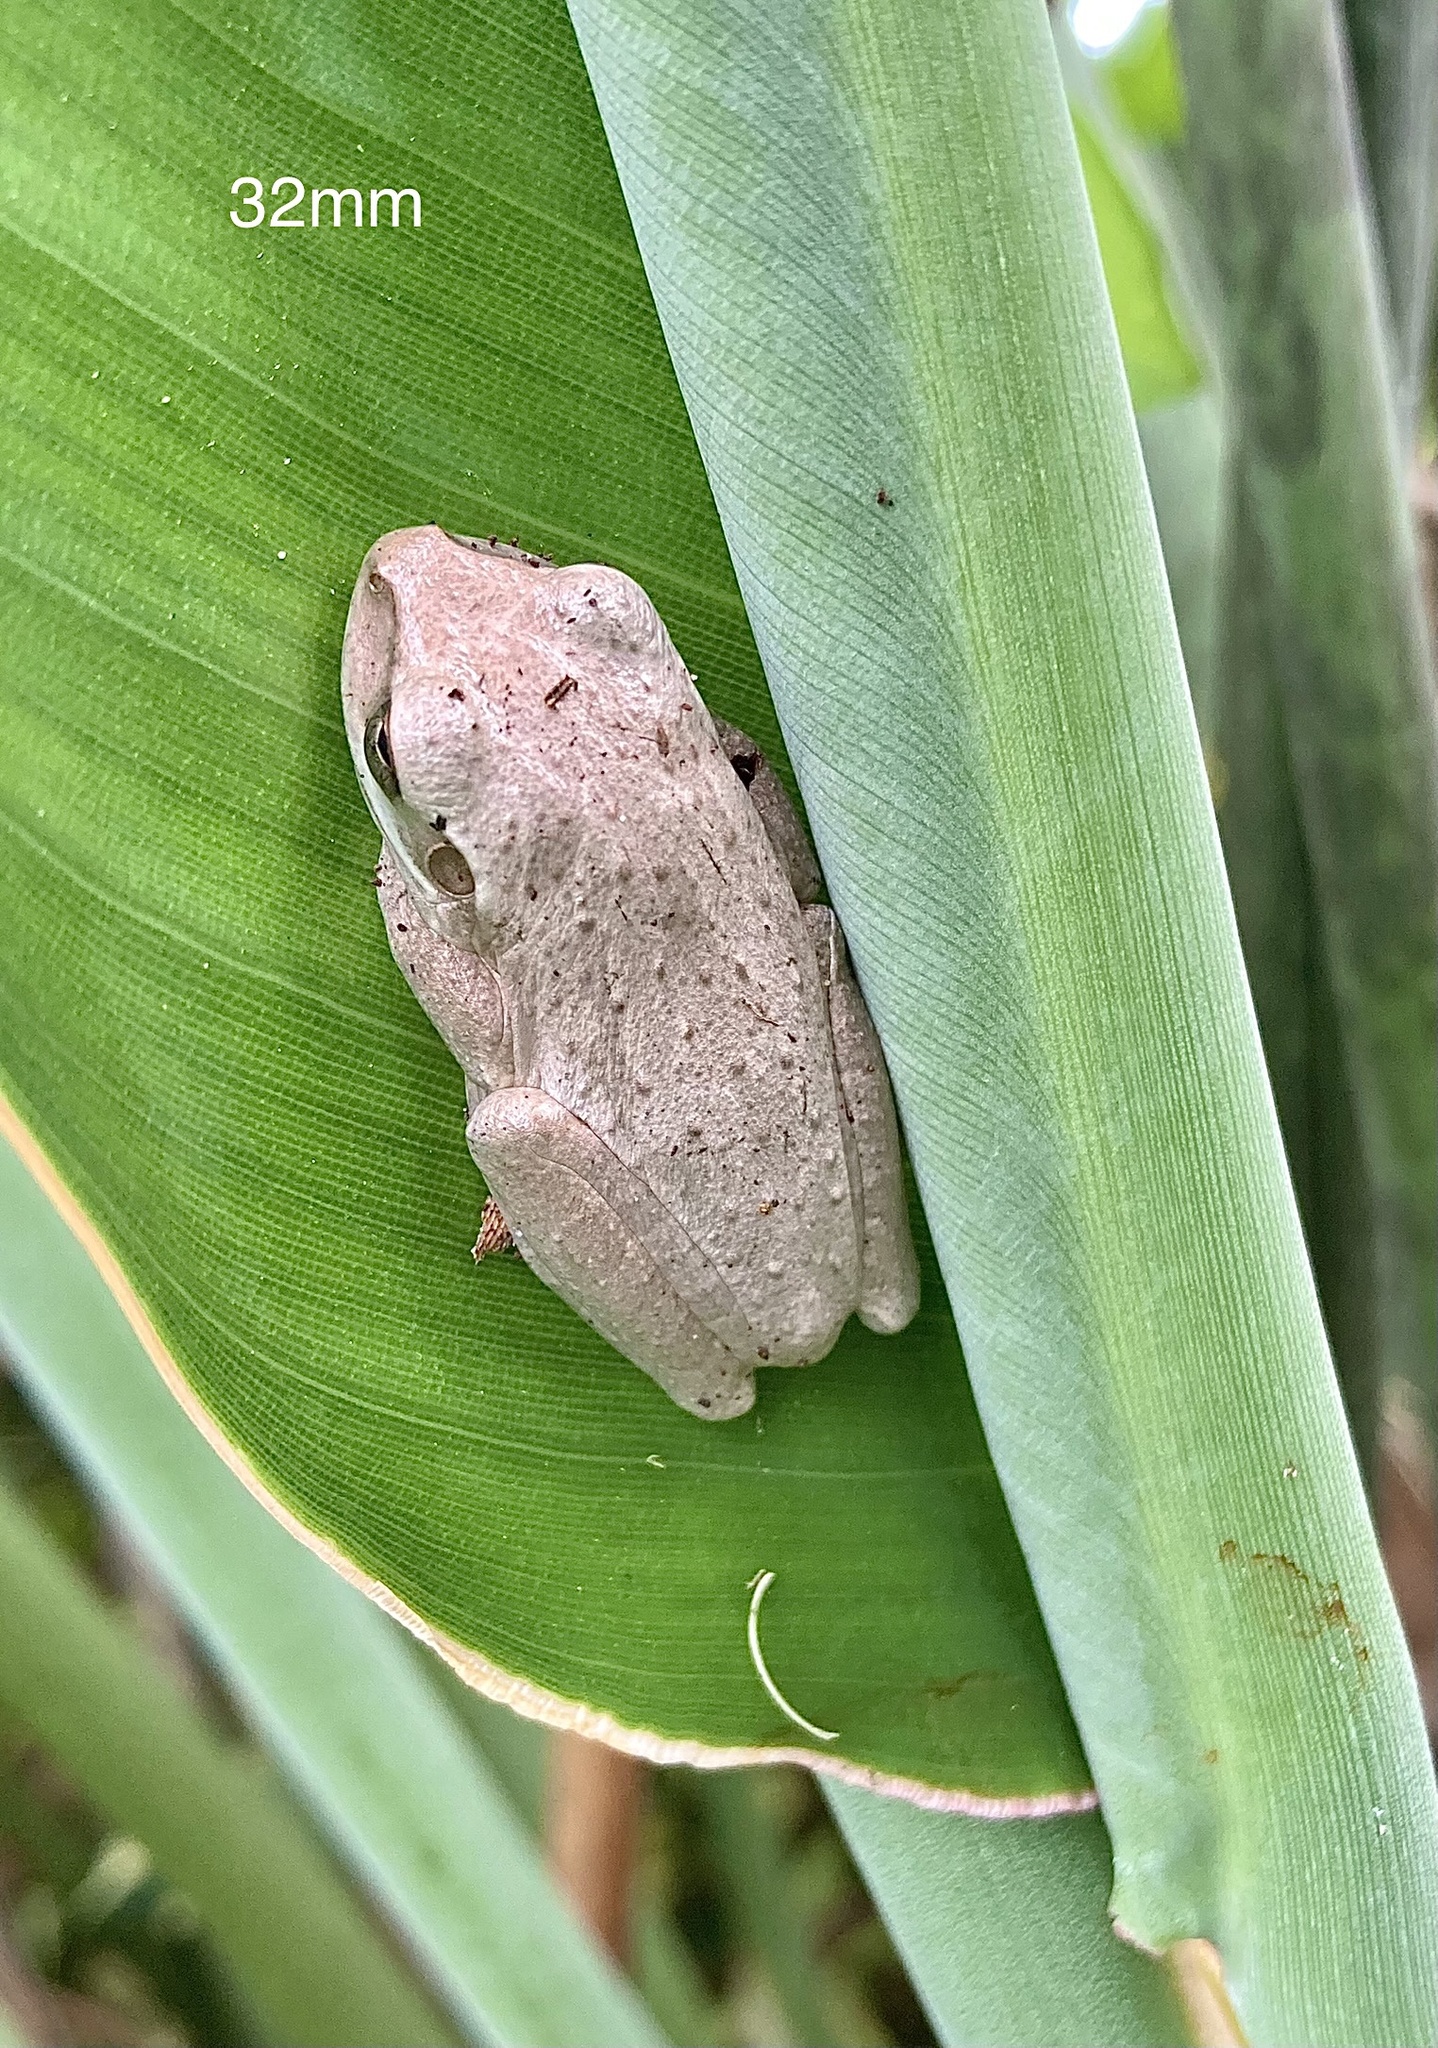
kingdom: Animalia
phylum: Chordata
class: Amphibia
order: Anura
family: Hylidae
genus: Osteopilus
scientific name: Osteopilus septentrionalis
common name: Cuban treefrog
